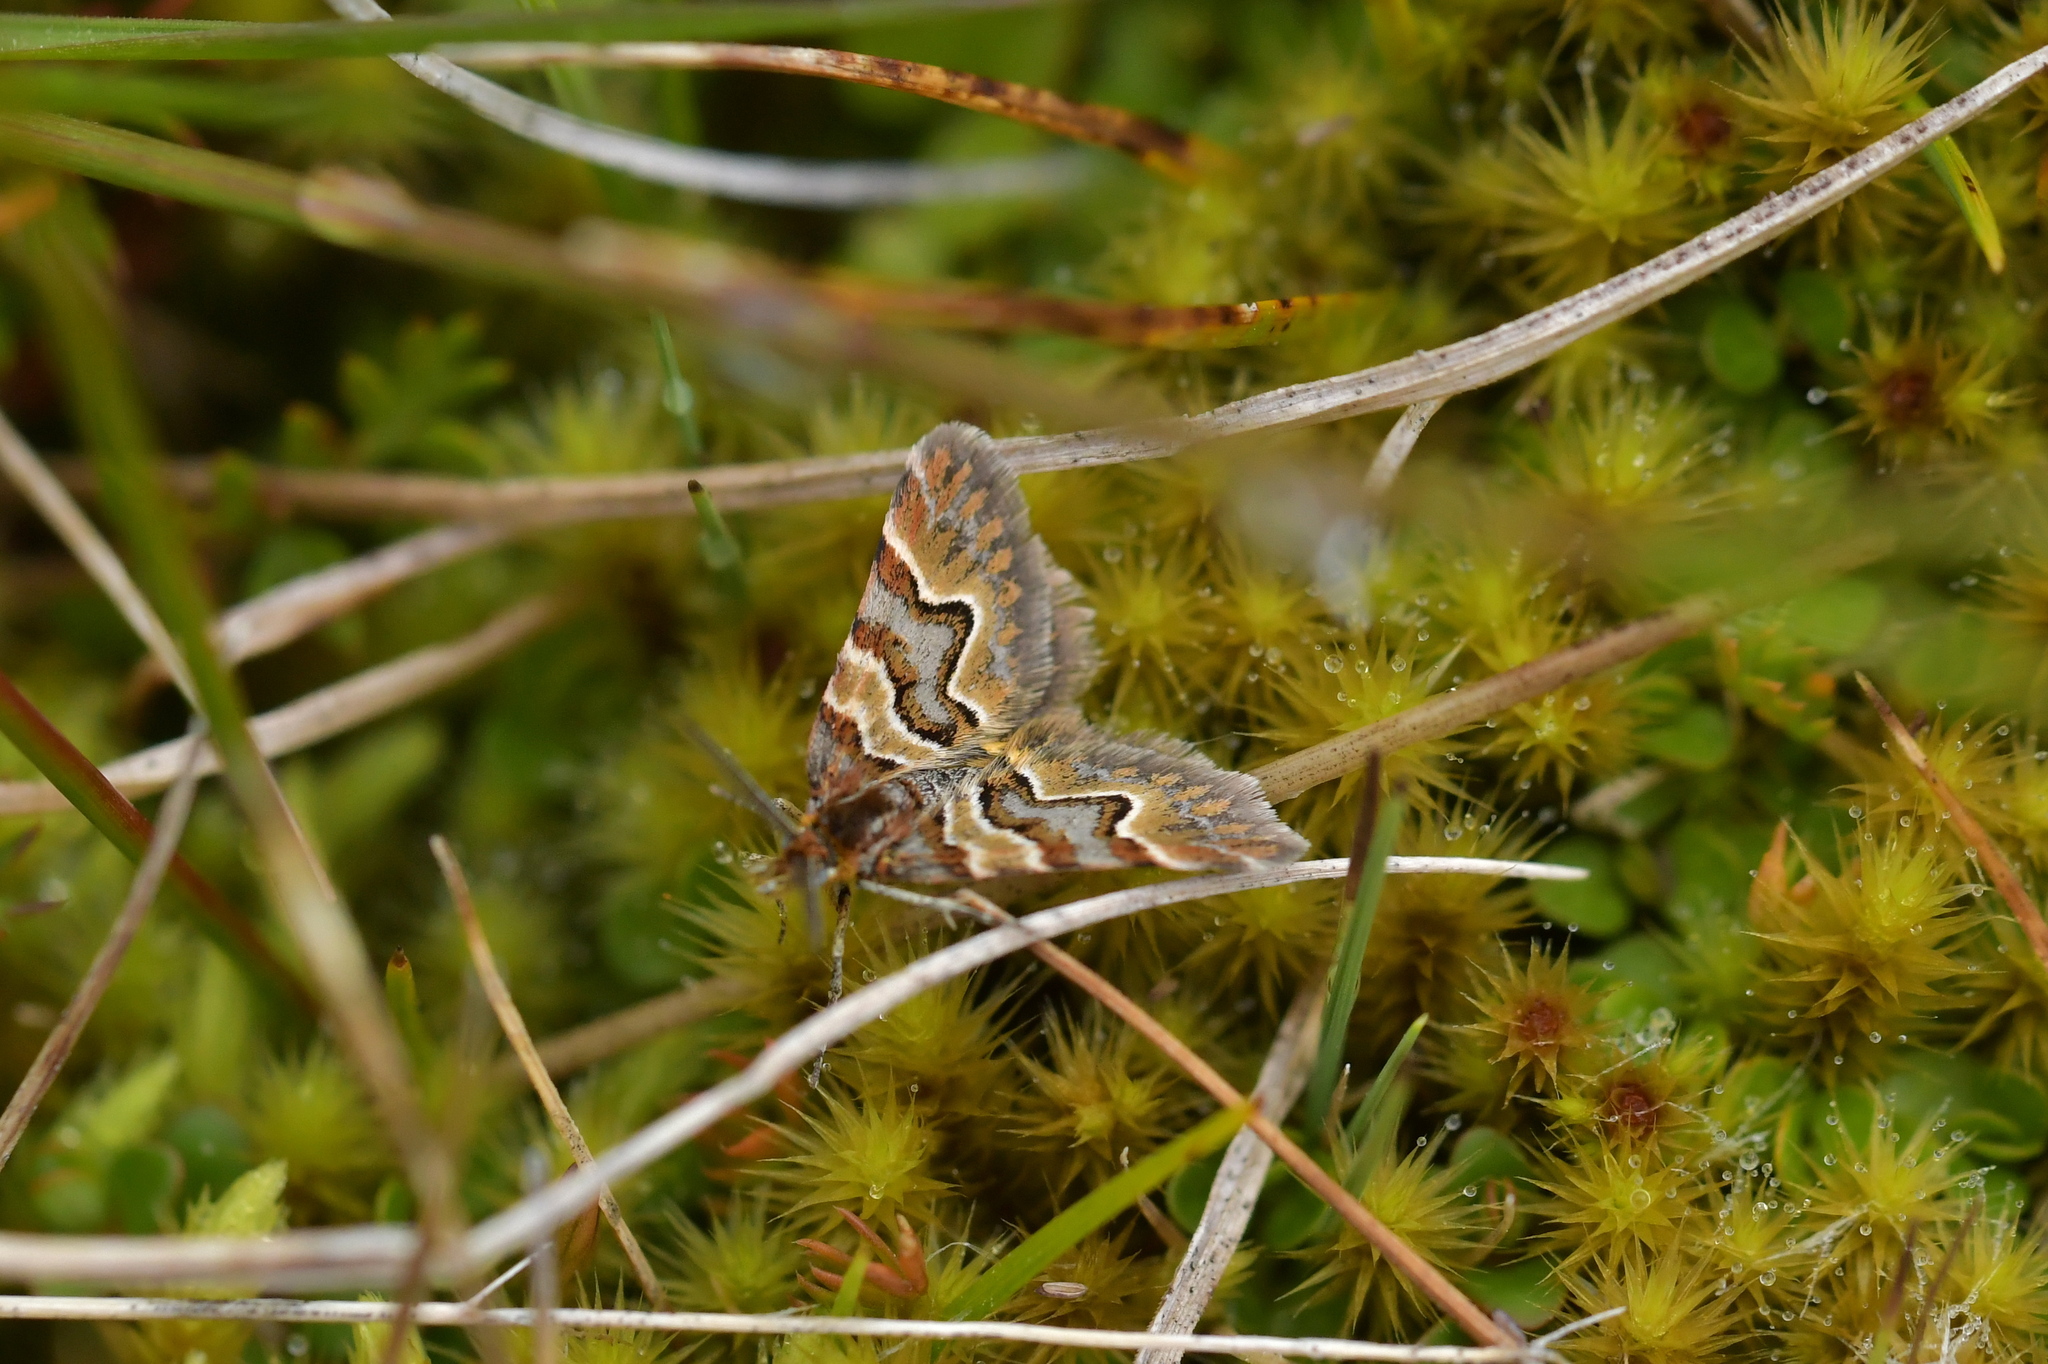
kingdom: Animalia
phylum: Arthropoda
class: Insecta
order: Lepidoptera
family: Geometridae
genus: Arctesthes
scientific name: Arctesthes siris
